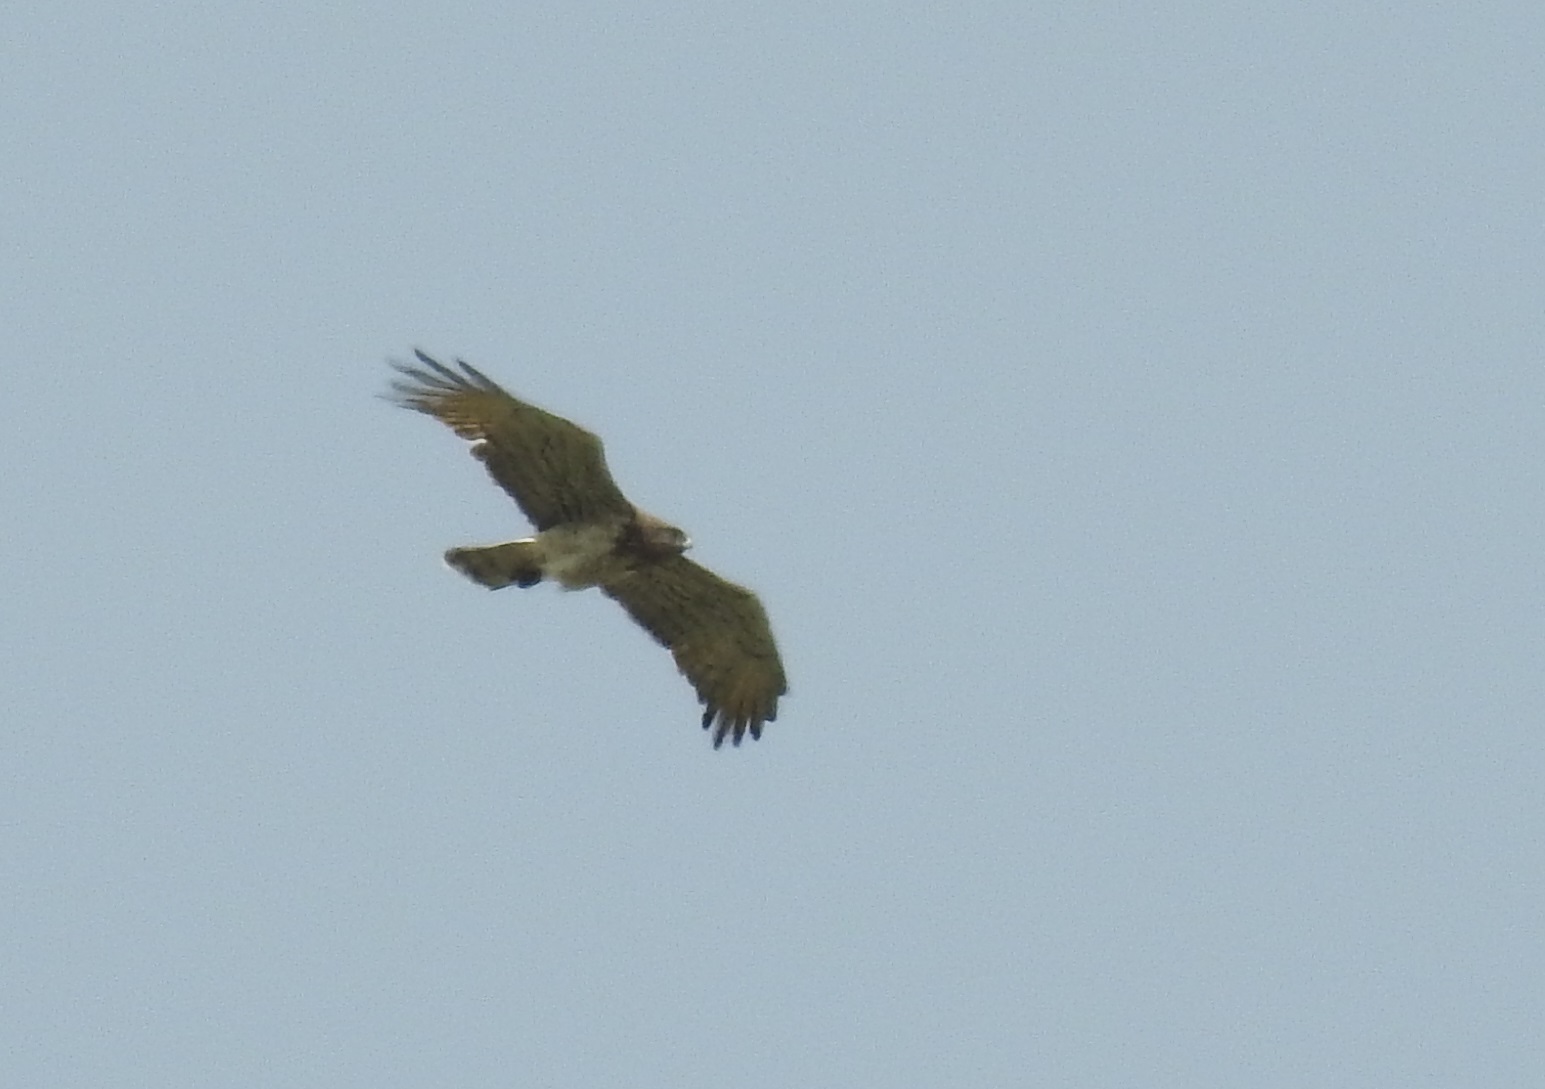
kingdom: Animalia
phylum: Chordata
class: Aves
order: Accipitriformes
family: Accipitridae
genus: Circaetus
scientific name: Circaetus gallicus
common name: Short-toed snake eagle
